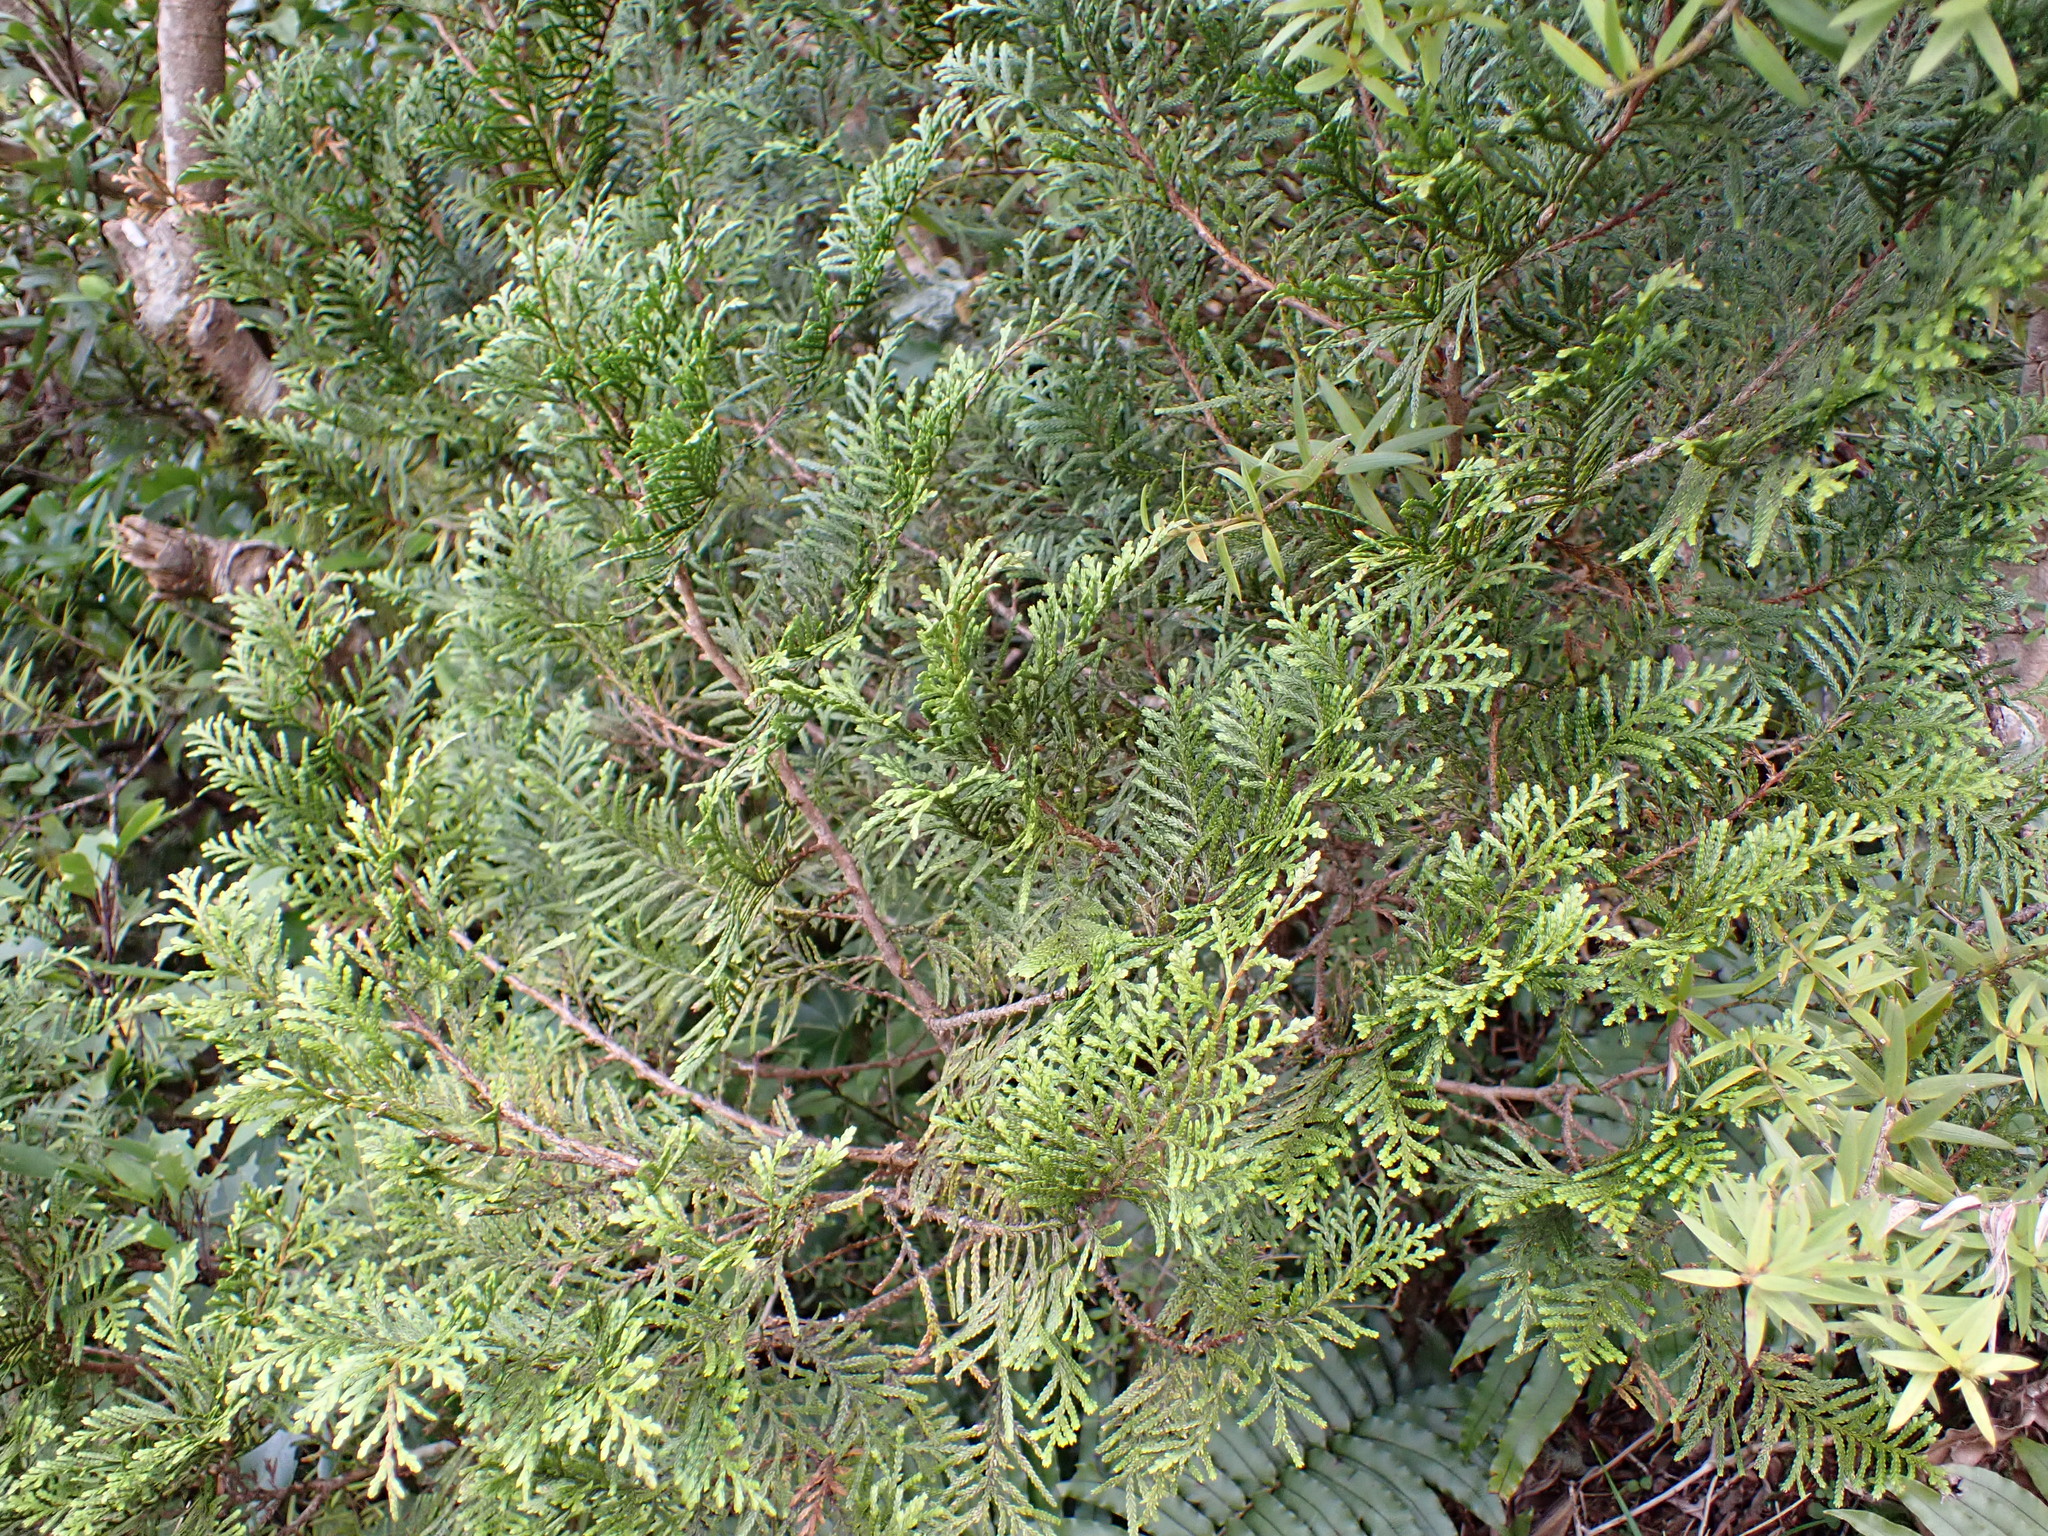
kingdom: Plantae
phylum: Tracheophyta
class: Pinopsida
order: Pinales
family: Cupressaceae
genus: Libocedrus
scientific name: Libocedrus bidwillii
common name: Cedar
